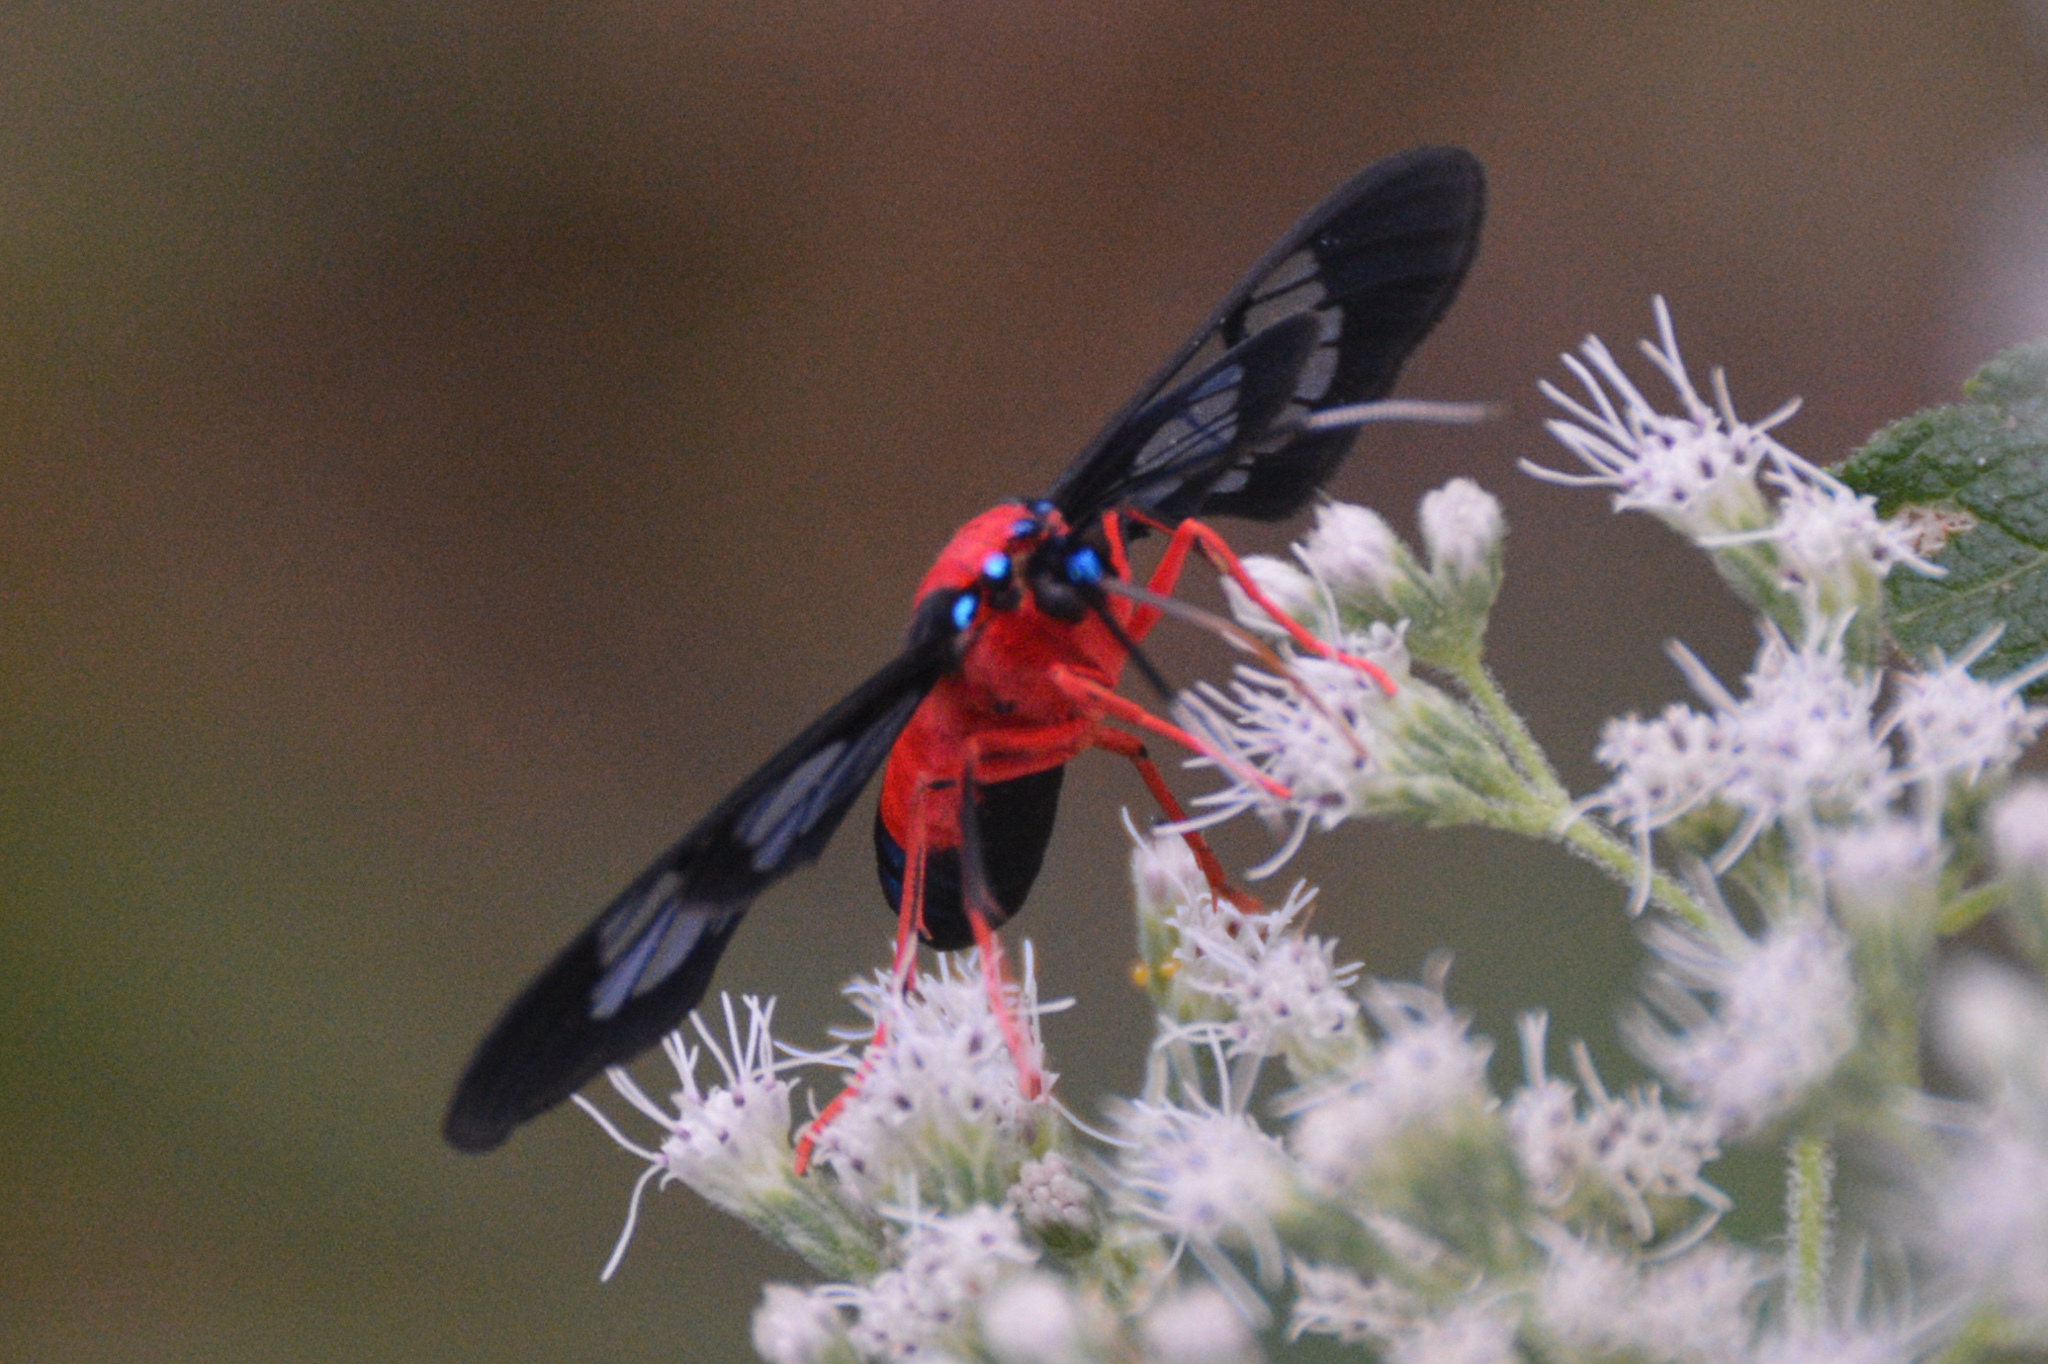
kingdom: Animalia
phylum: Arthropoda
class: Insecta
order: Lepidoptera
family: Erebidae
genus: Cosmosoma
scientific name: Cosmosoma myrodora
